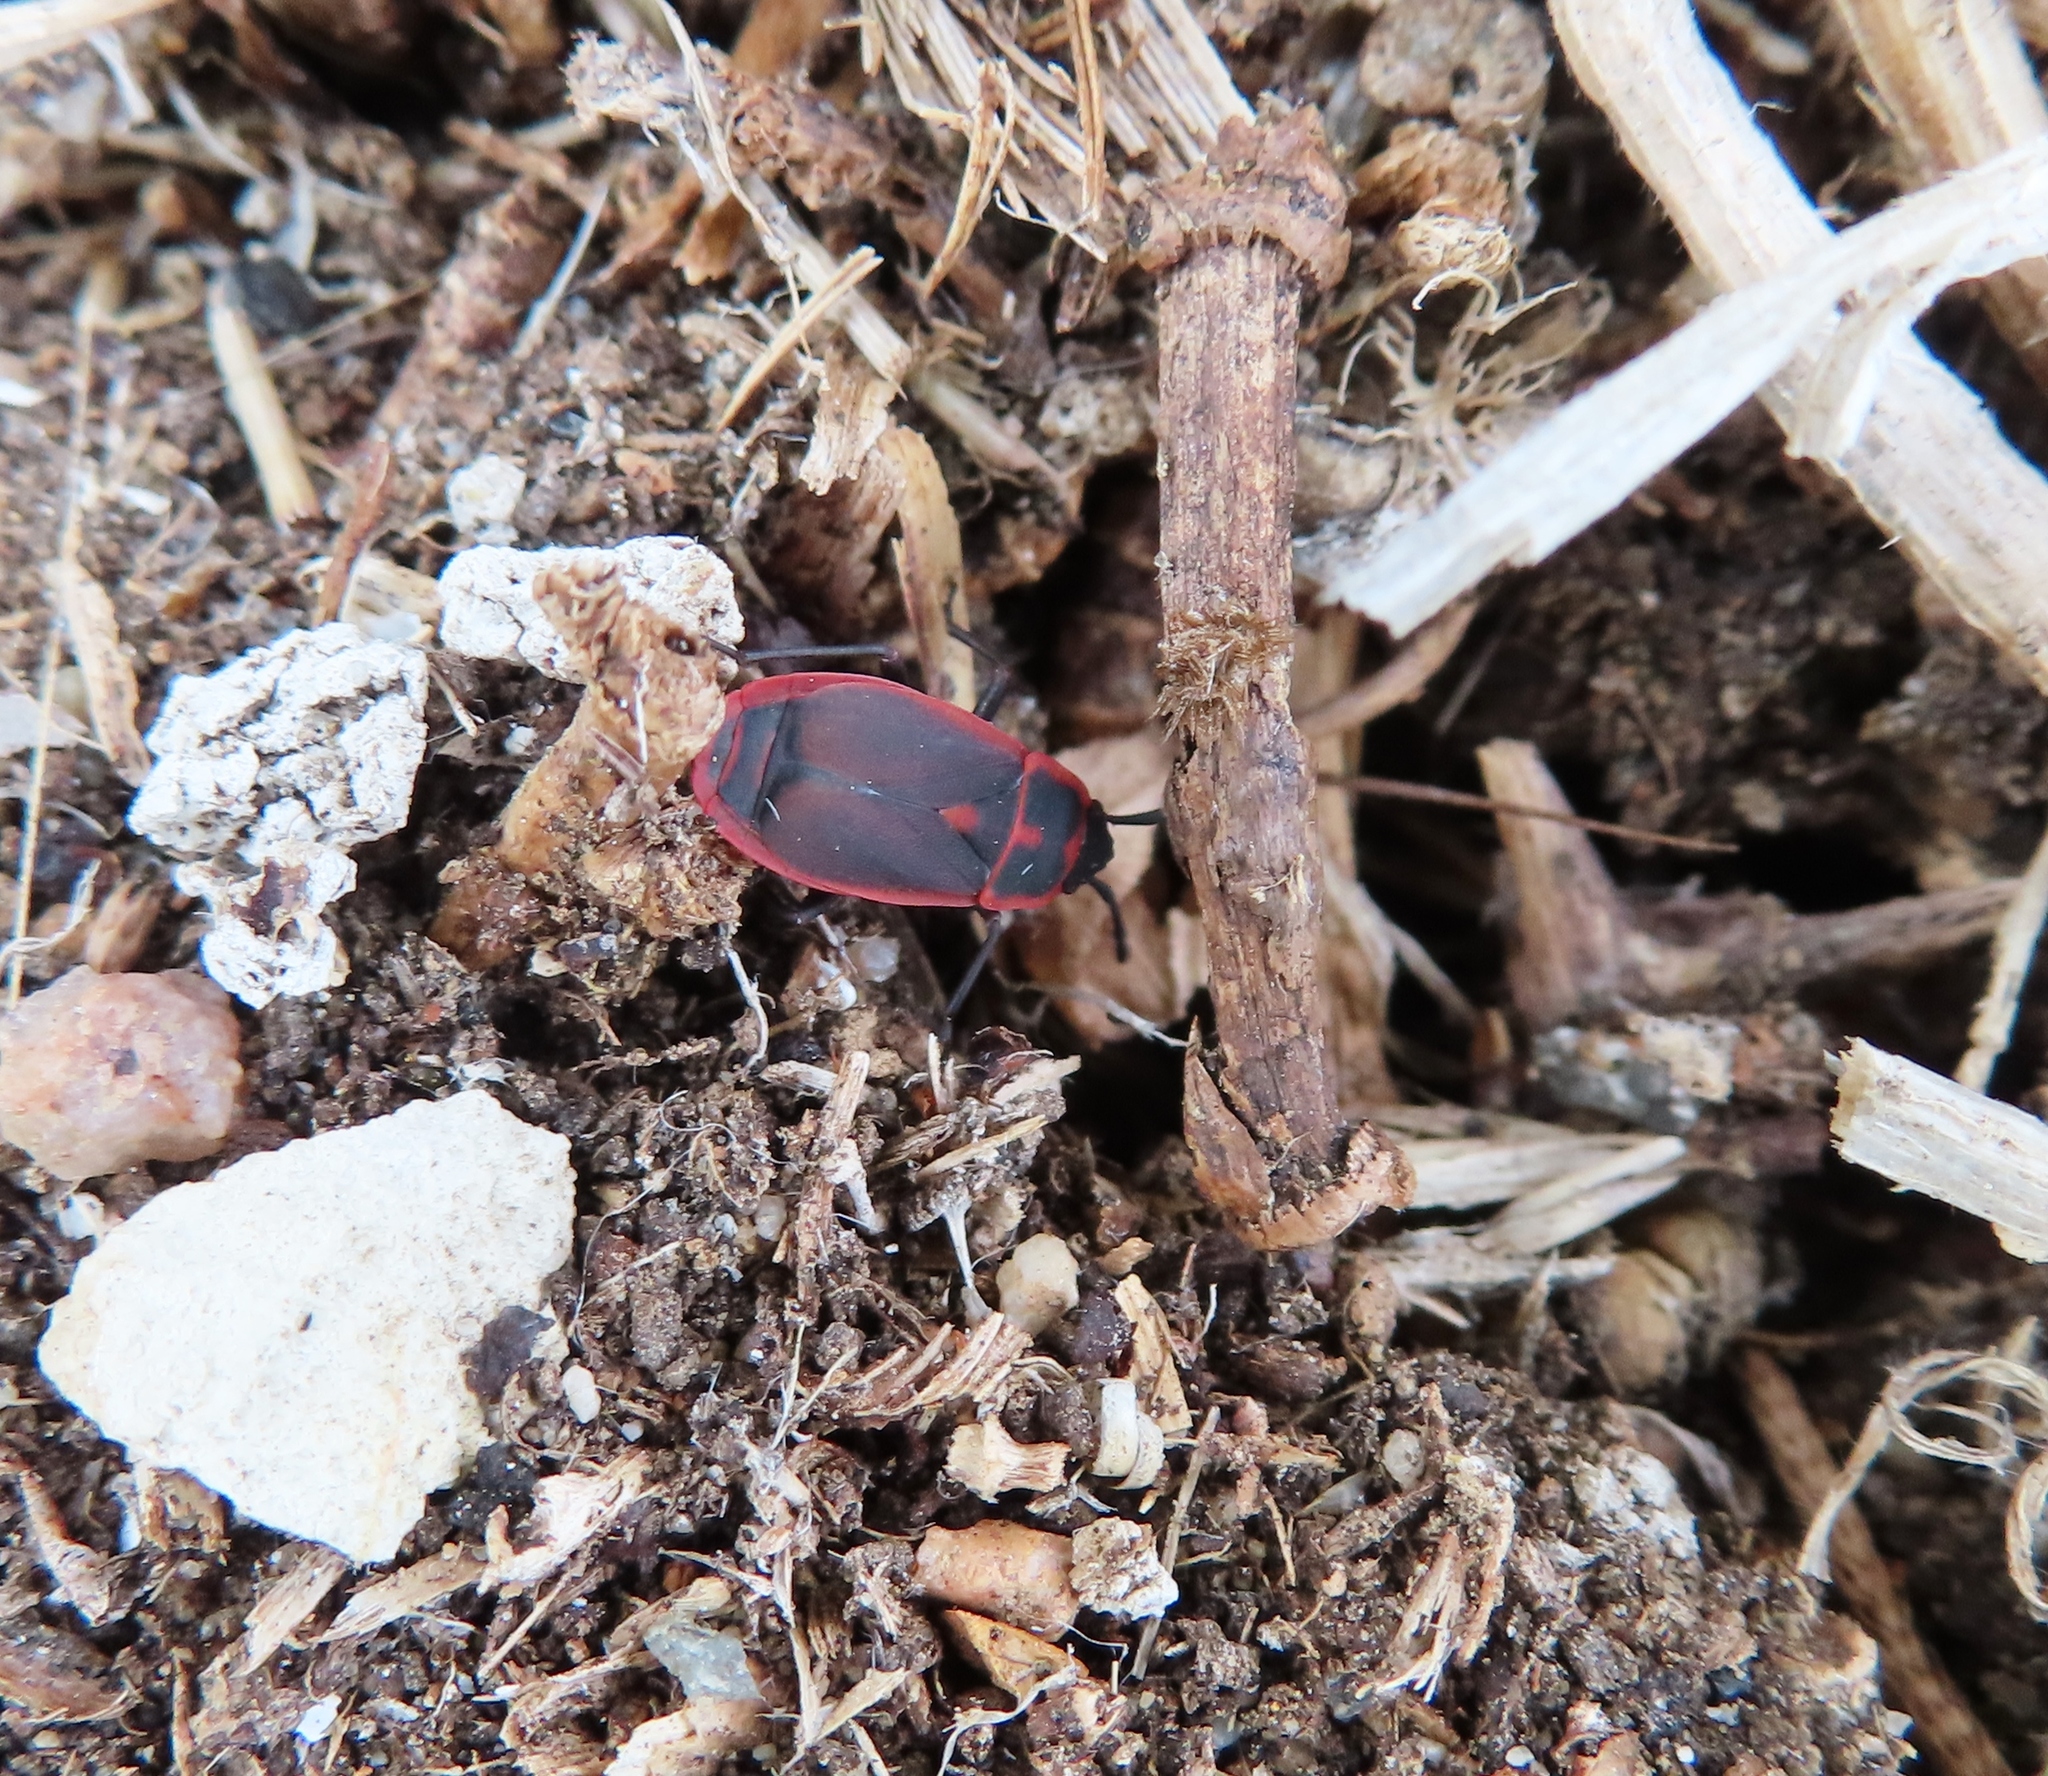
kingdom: Animalia
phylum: Arthropoda
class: Insecta
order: Hemiptera
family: Pyrrhocoridae
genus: Scantius
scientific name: Scantius forsteri
